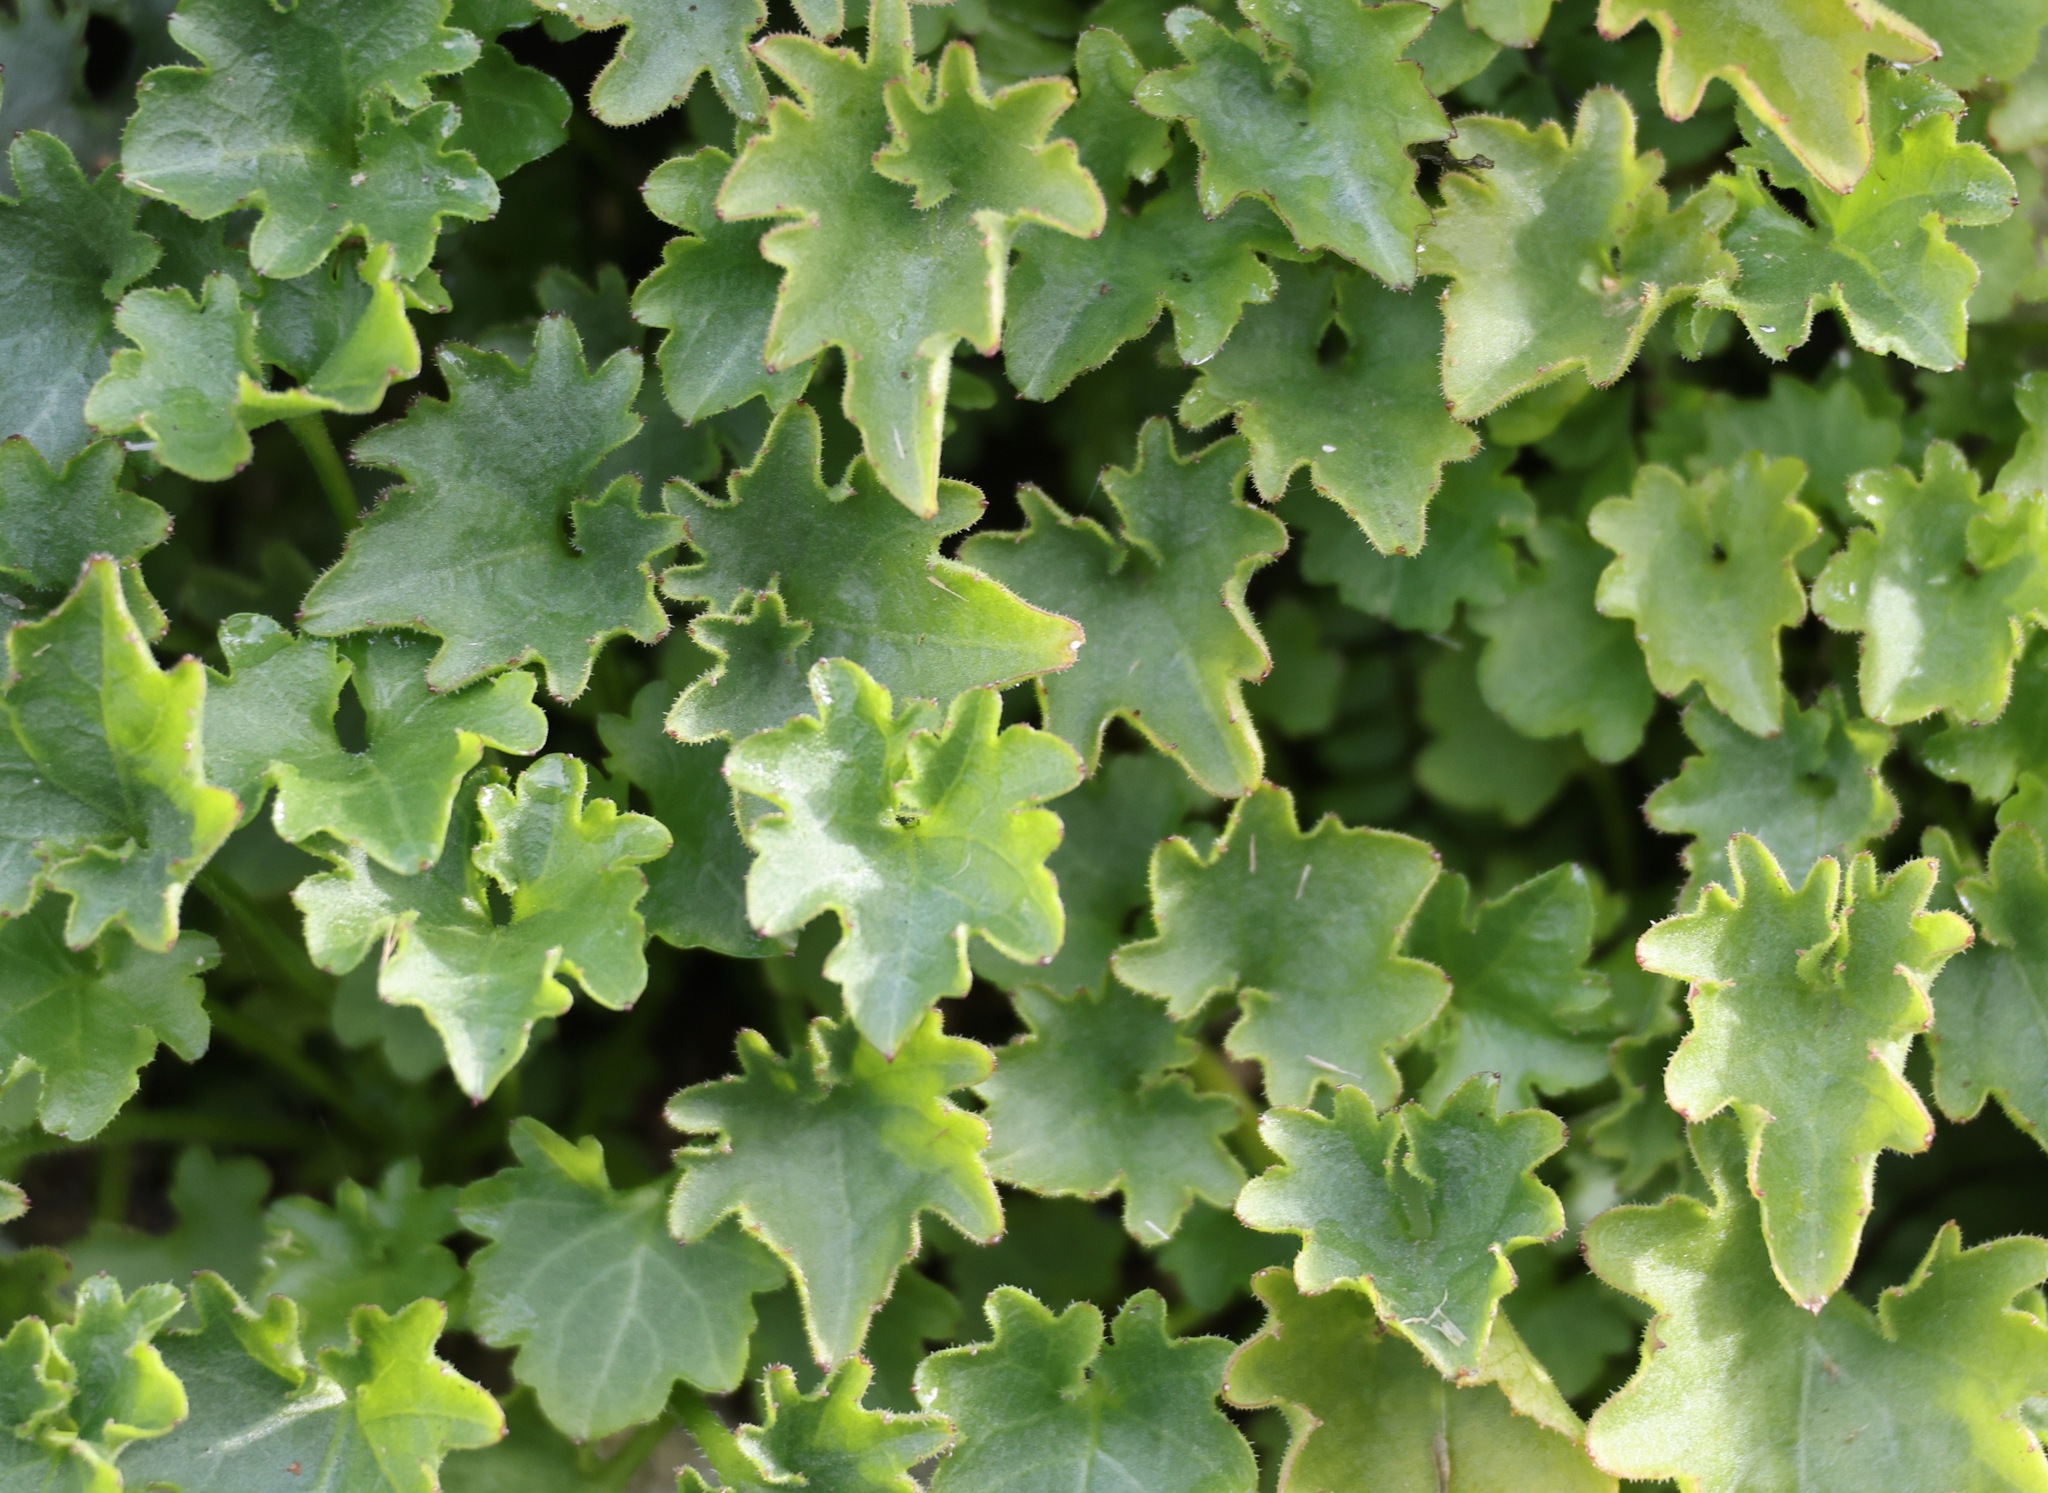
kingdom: Plantae
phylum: Tracheophyta
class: Magnoliopsida
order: Asterales
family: Campanulaceae
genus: Campanula
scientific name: Campanula portenschlagiana
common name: Adria bellflower
